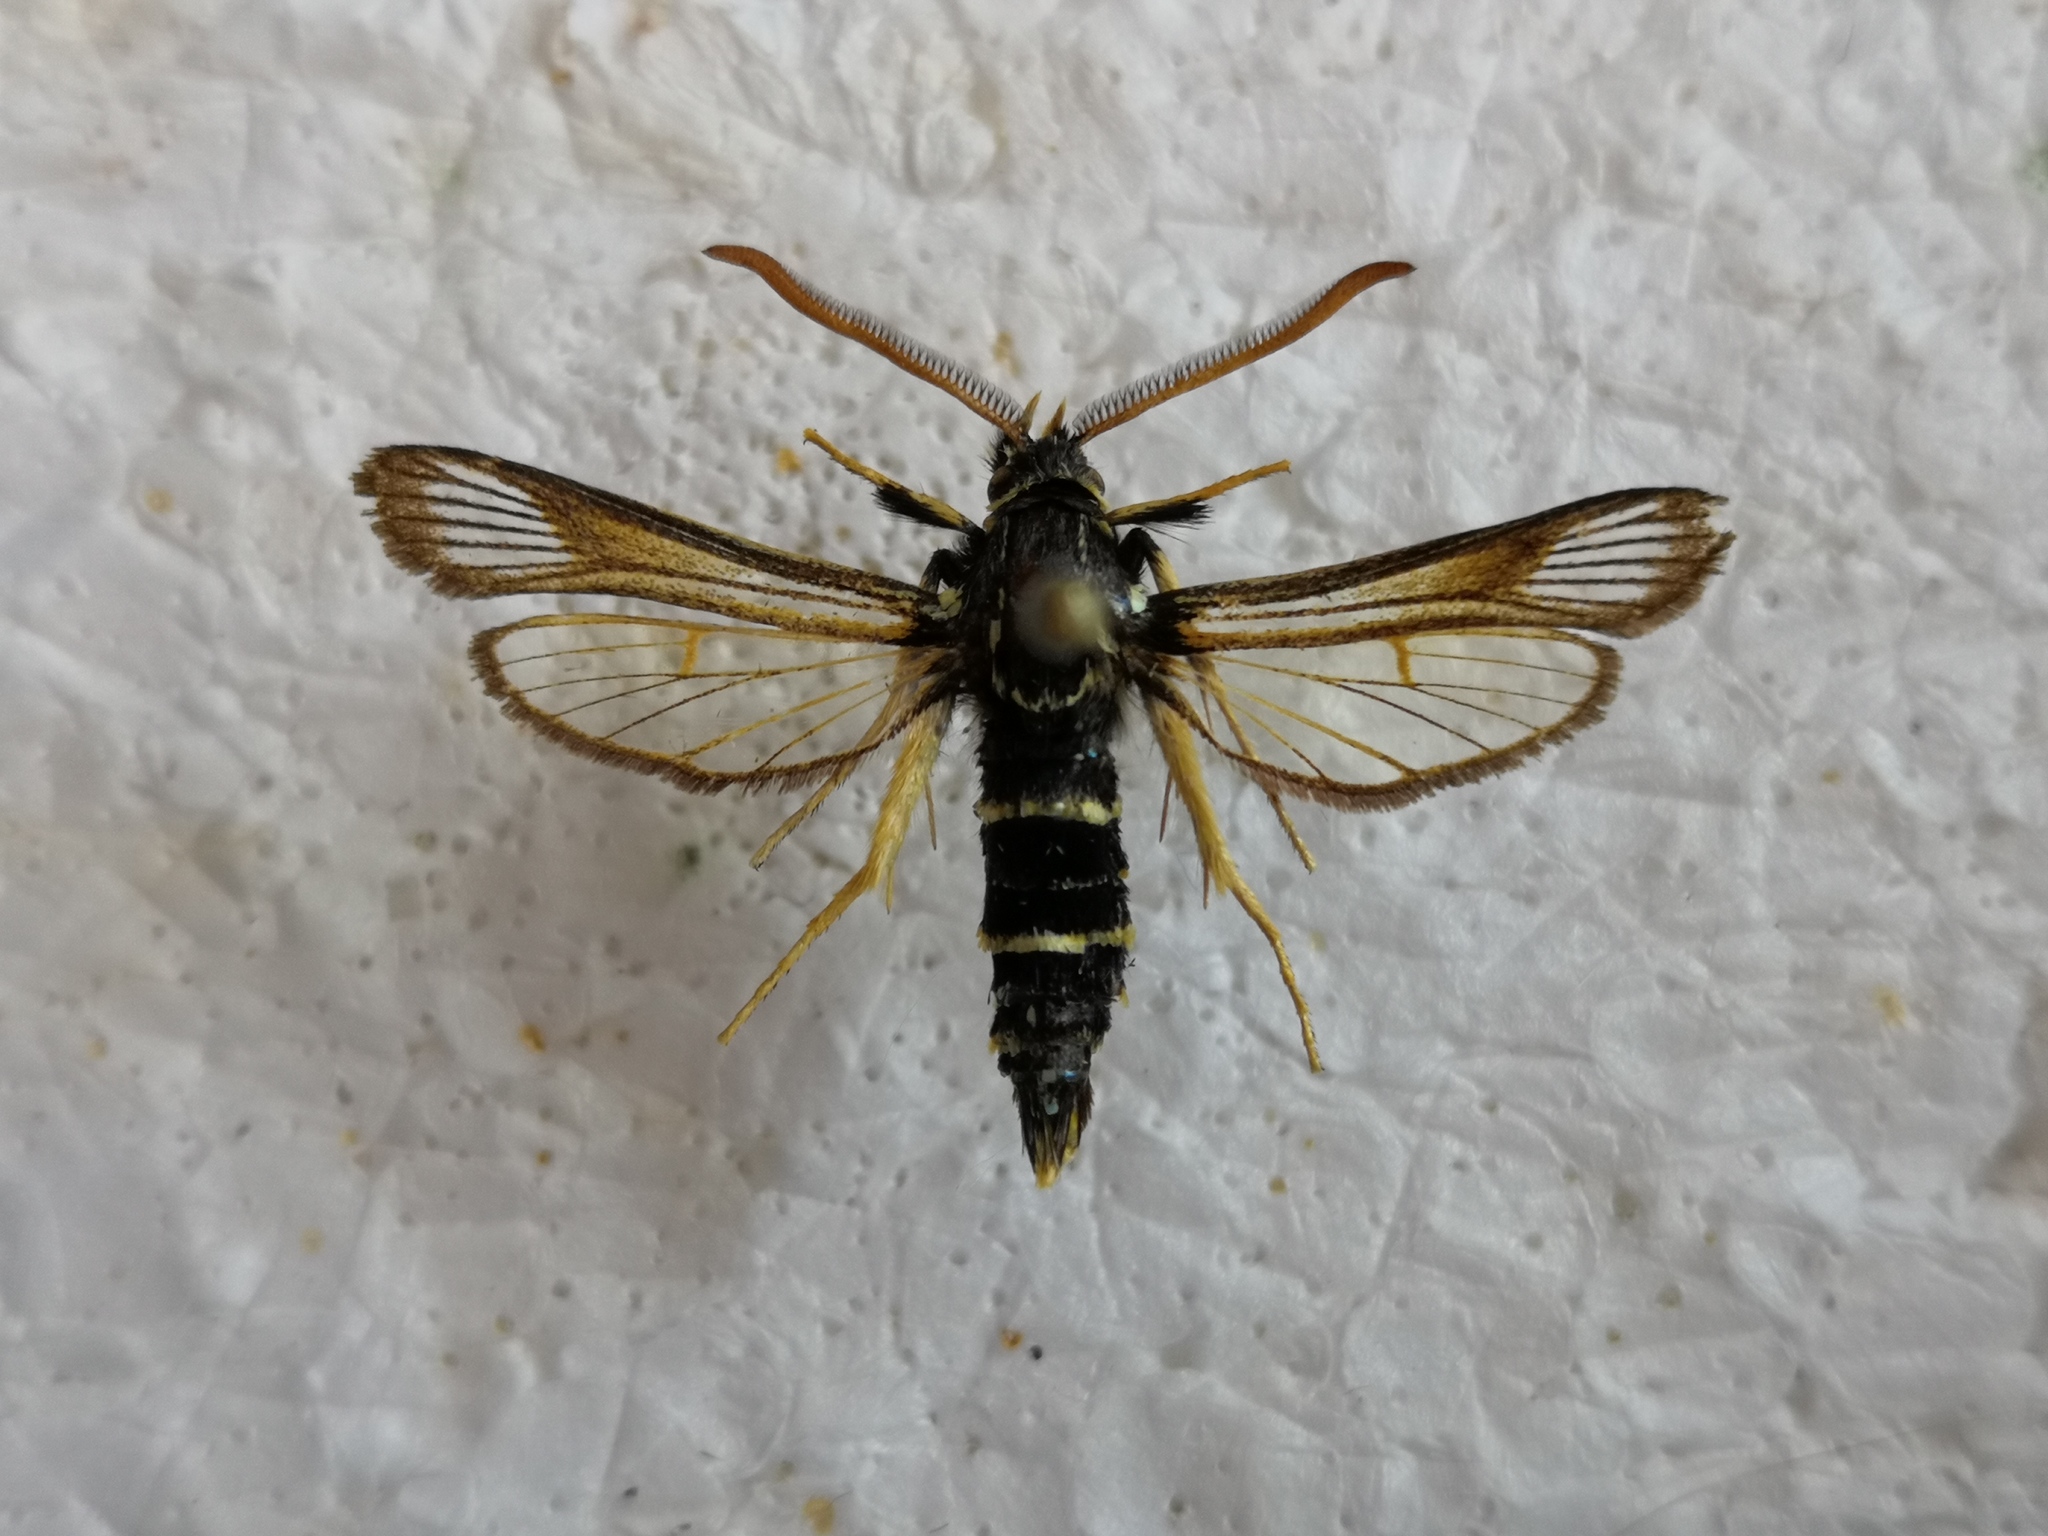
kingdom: Animalia
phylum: Arthropoda
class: Insecta
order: Lepidoptera
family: Sesiidae
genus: Paranthrene
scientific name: Paranthrene insolitus
